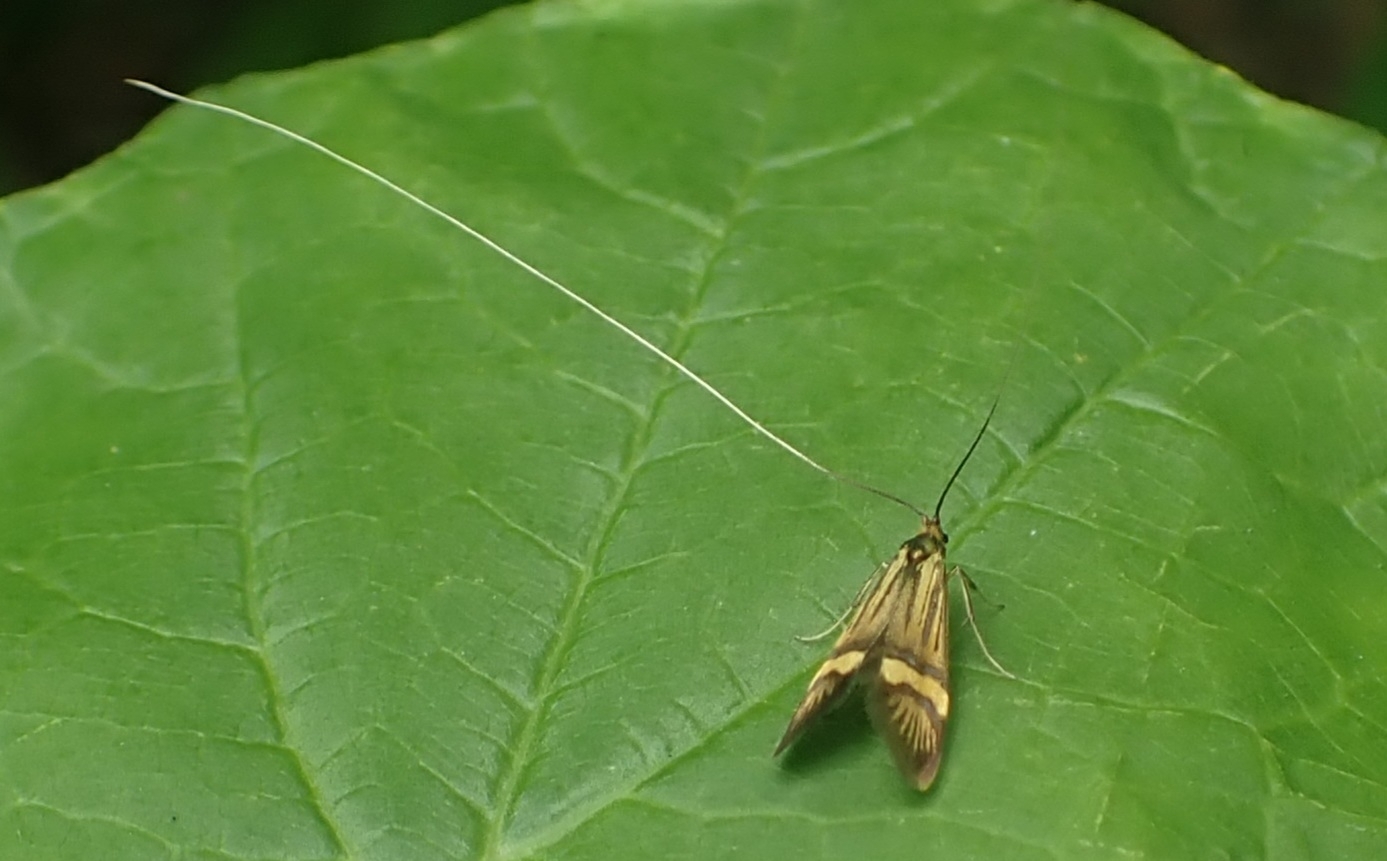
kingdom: Animalia
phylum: Arthropoda
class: Insecta
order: Lepidoptera
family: Adelidae
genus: Nemophora
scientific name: Nemophora degeerella
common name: Yellow-barred long-horn
